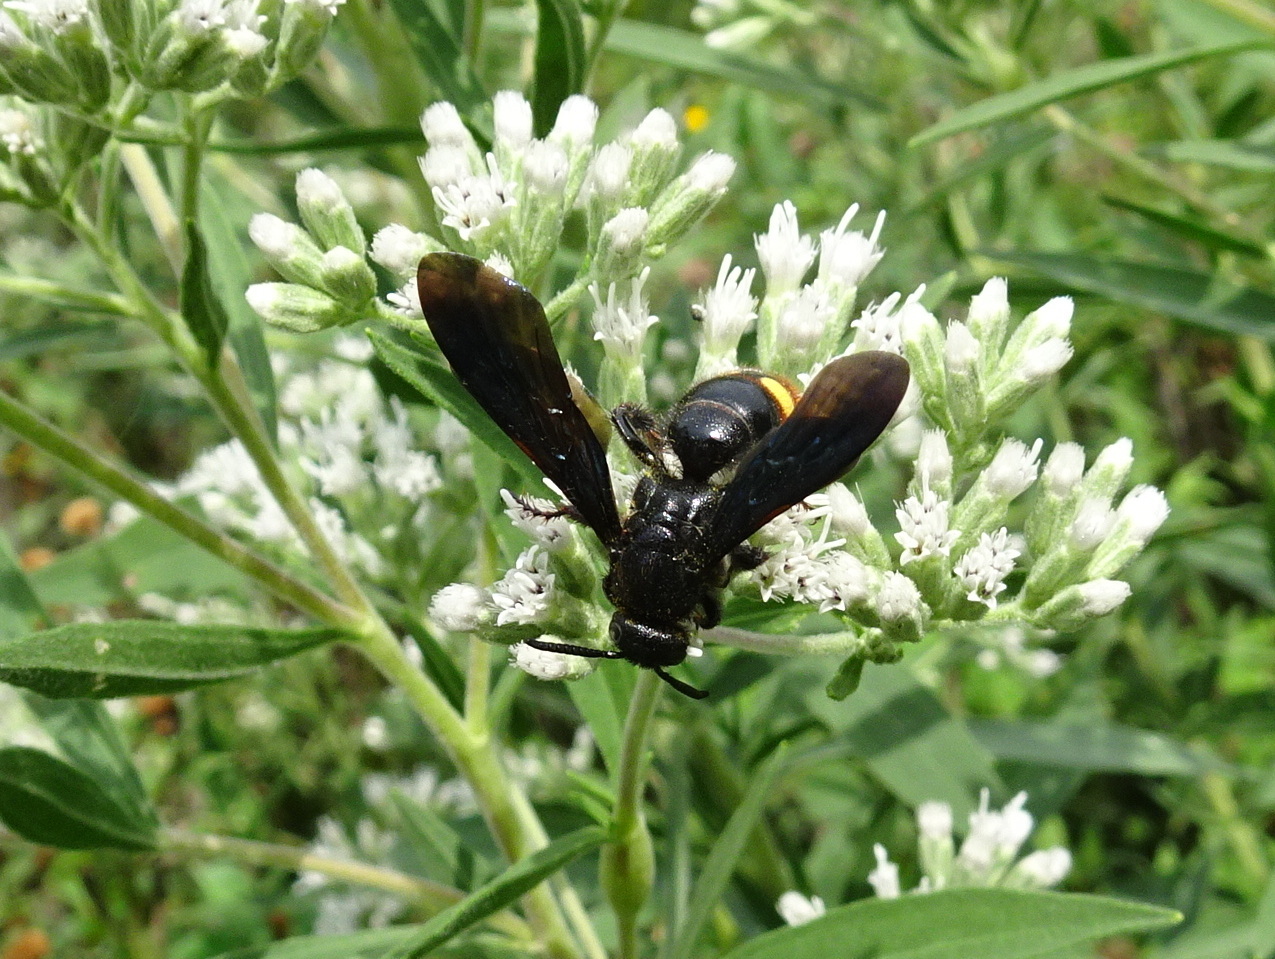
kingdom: Animalia
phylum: Arthropoda
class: Insecta
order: Hymenoptera
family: Scoliidae
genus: Scolia
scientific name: Scolia dubia
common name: Blue-winged scoliid wasp
